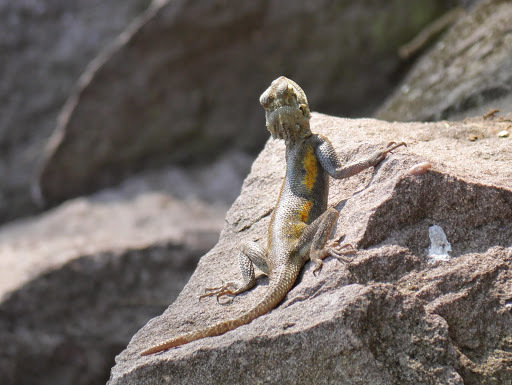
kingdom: Animalia
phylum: Chordata
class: Squamata
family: Agamidae
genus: Agama
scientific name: Agama agama
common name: Common agama
